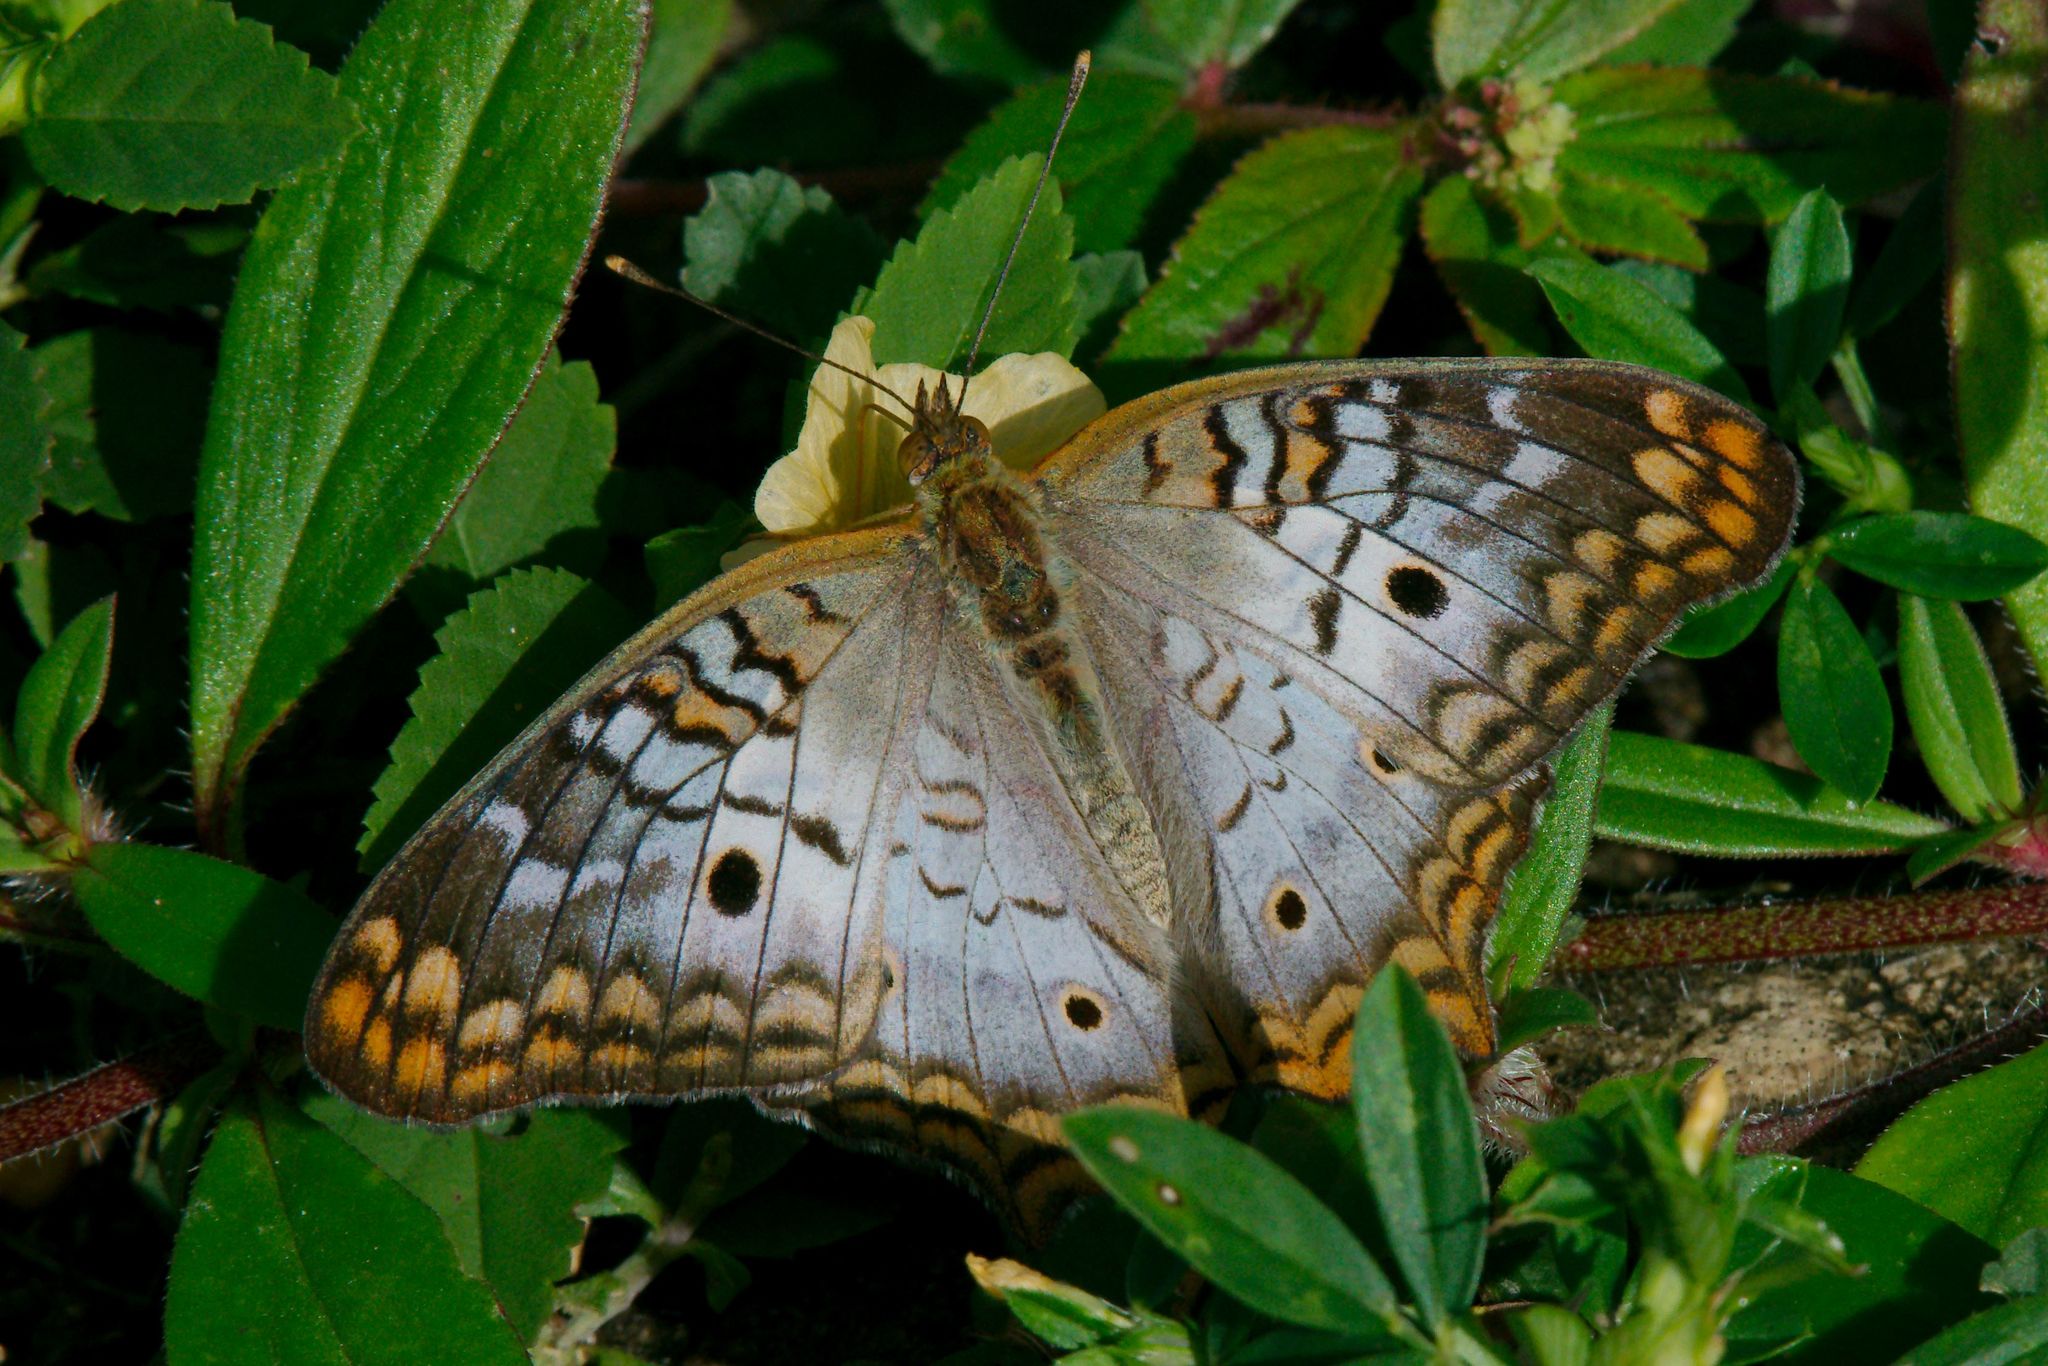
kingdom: Animalia
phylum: Arthropoda
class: Insecta
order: Lepidoptera
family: Nymphalidae
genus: Anartia
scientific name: Anartia jatrophae
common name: White peacock
